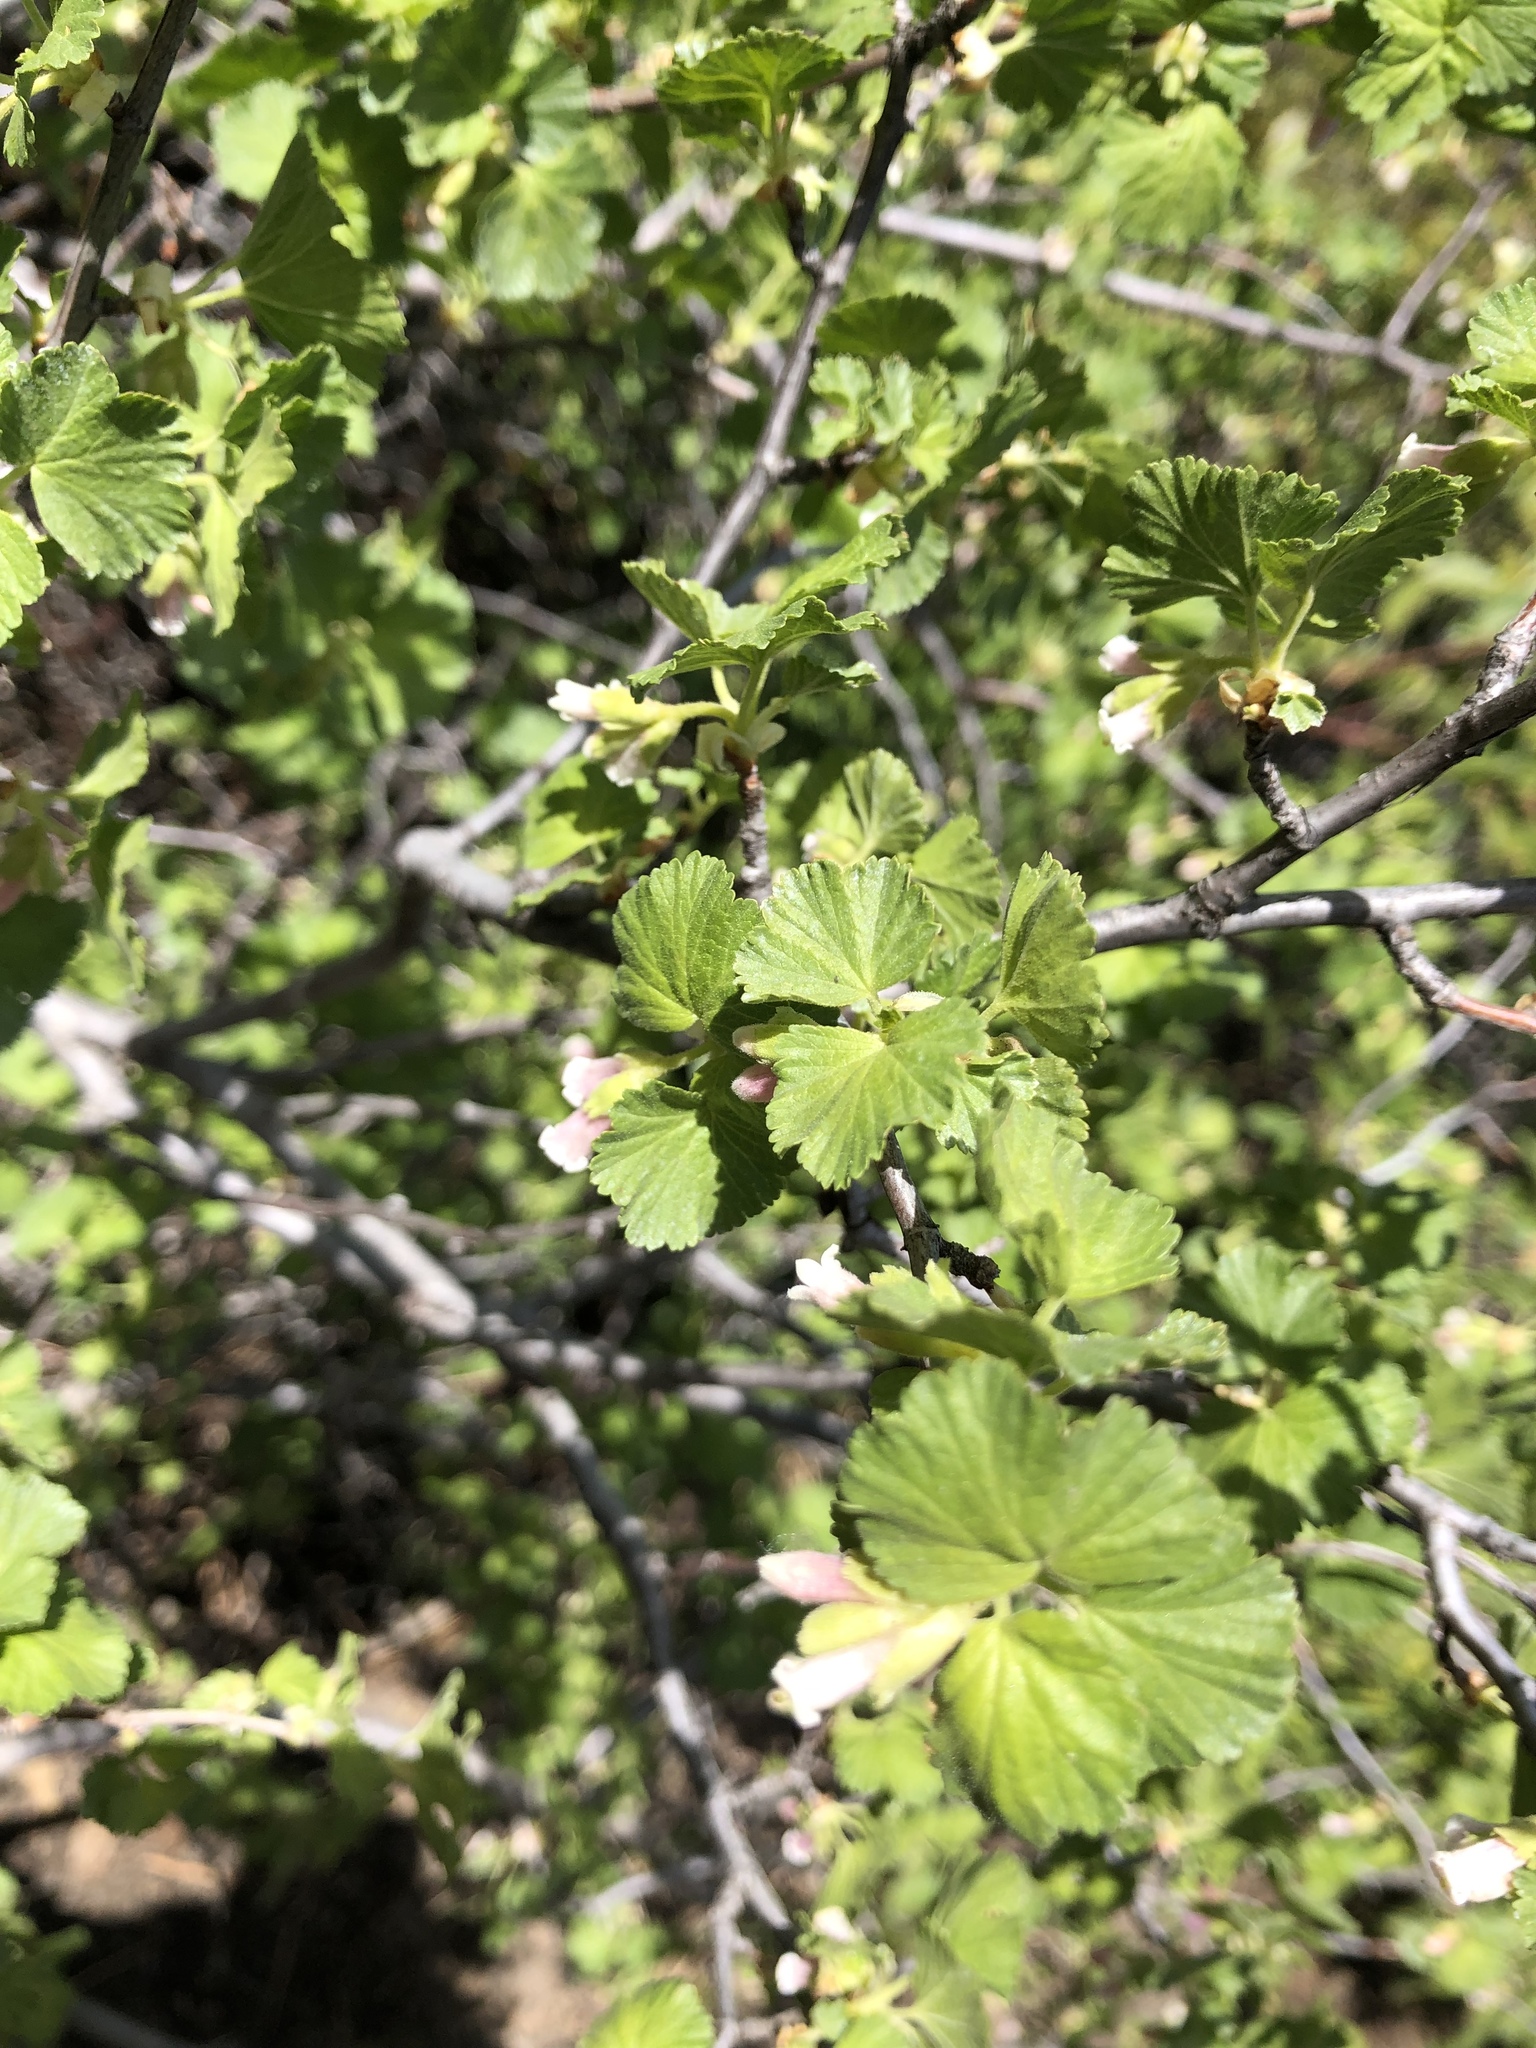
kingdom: Plantae
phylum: Tracheophyta
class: Magnoliopsida
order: Saxifragales
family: Grossulariaceae
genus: Ribes
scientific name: Ribes cereum
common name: Wax currant
